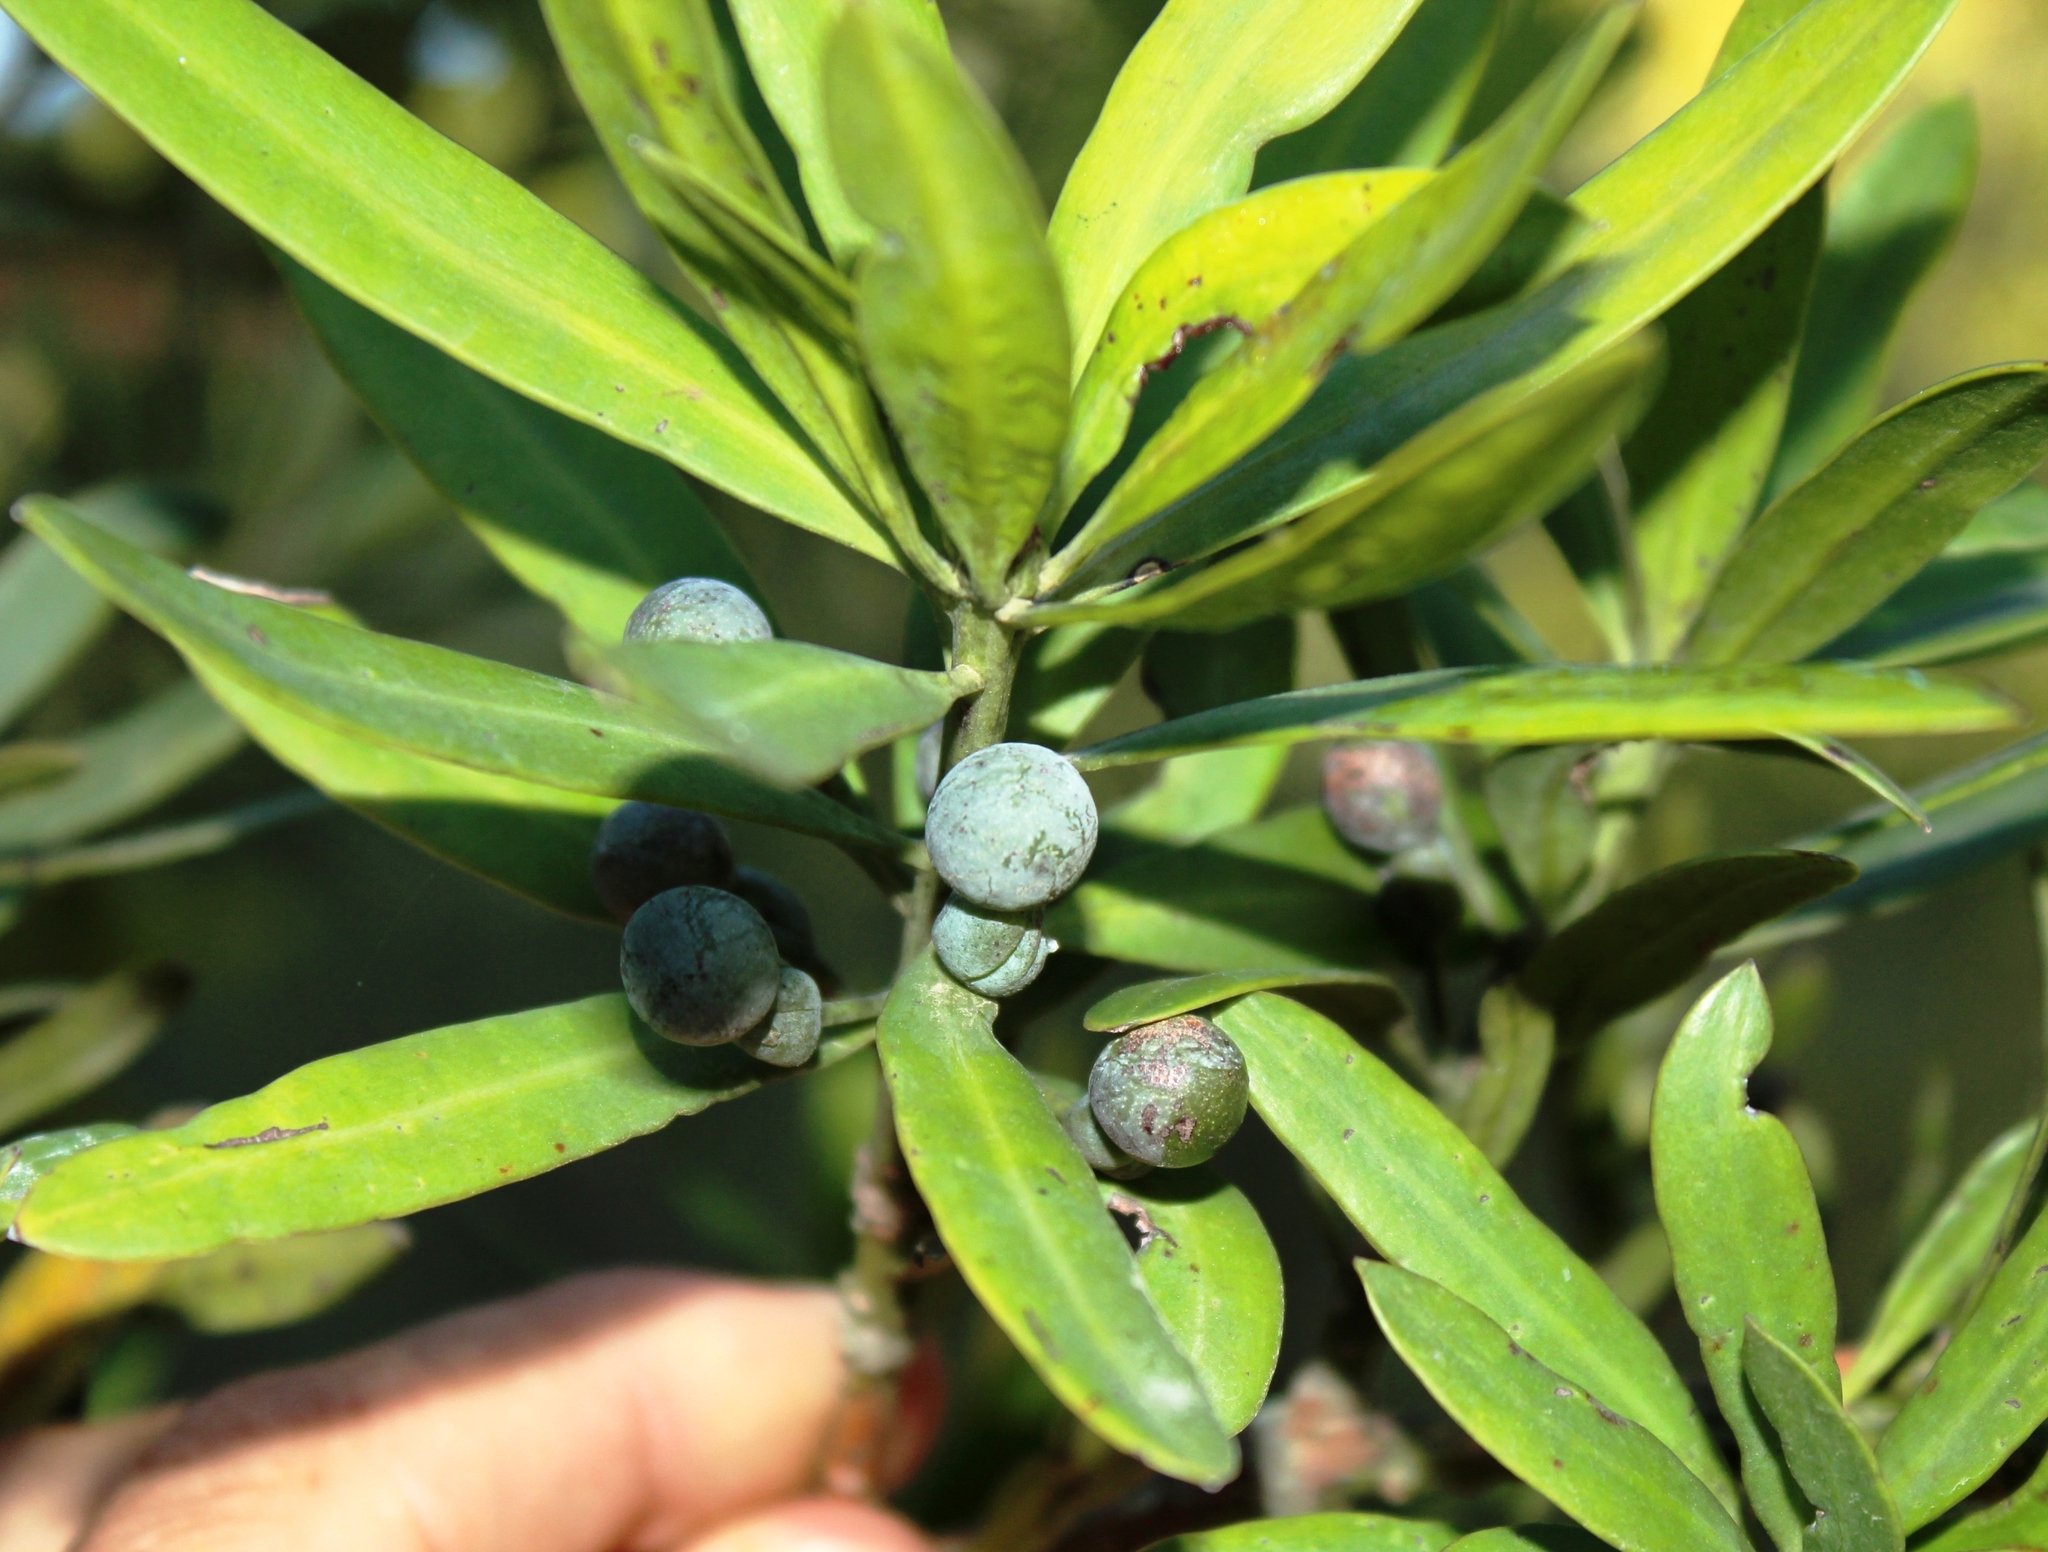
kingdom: Plantae
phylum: Tracheophyta
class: Pinopsida
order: Pinales
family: Podocarpaceae
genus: Podocarpus
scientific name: Podocarpus latifolius
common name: True yellowwood
